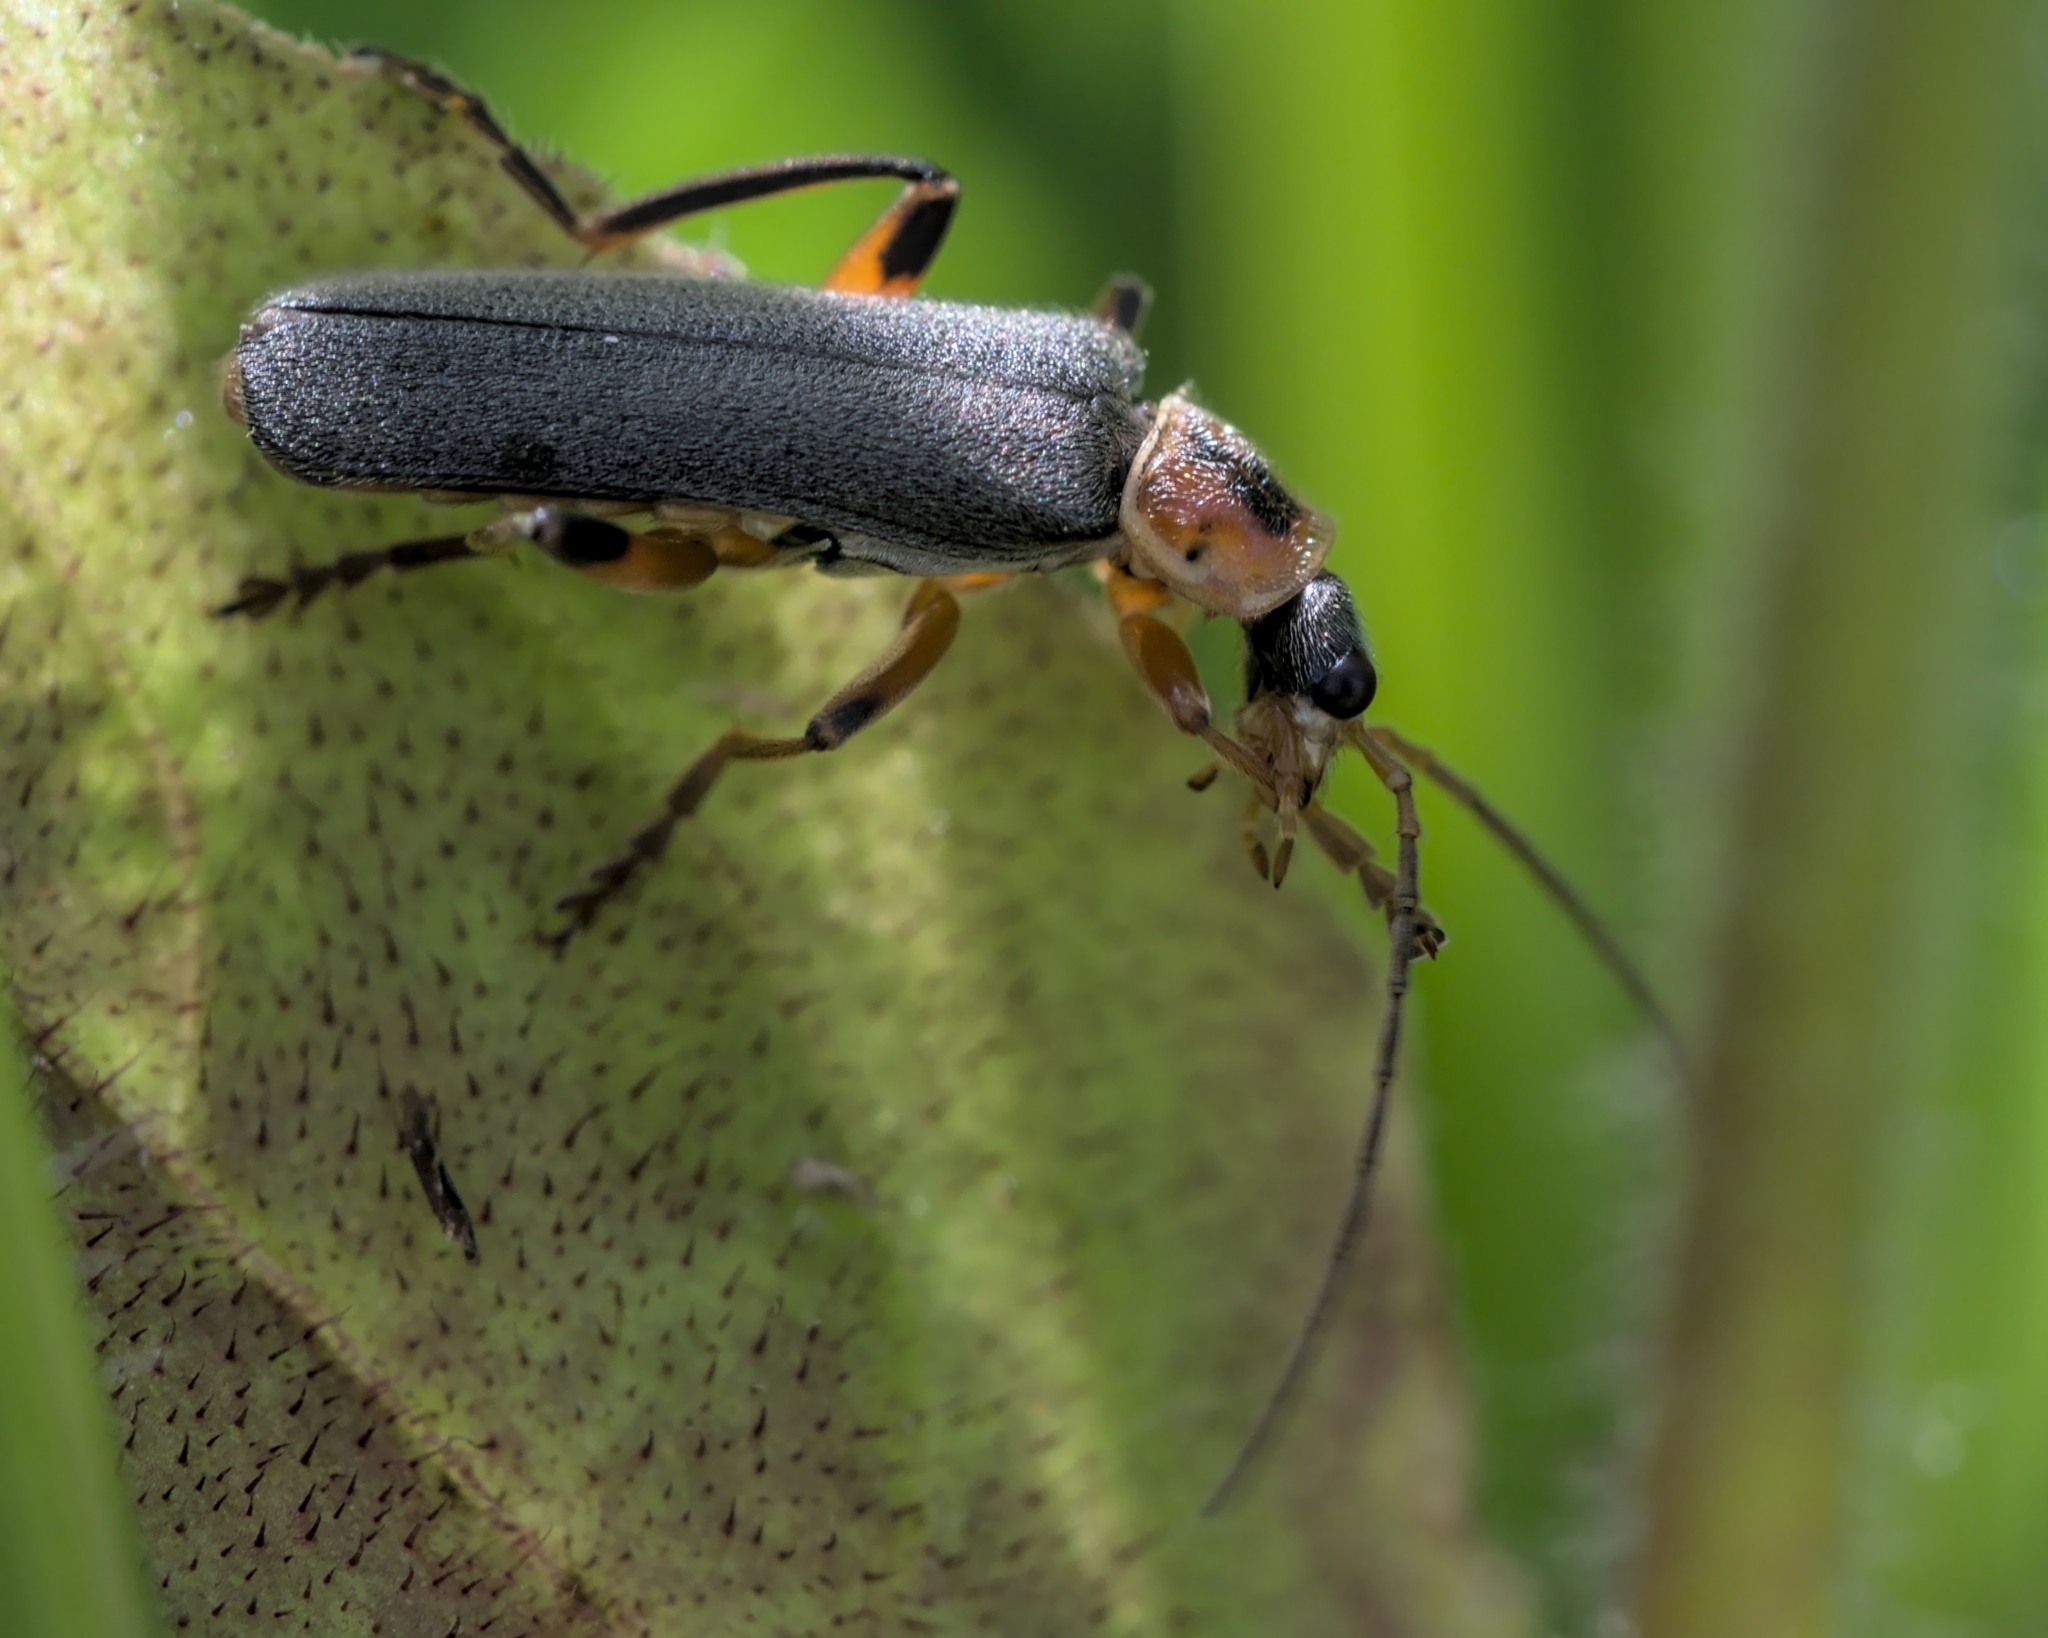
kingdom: Animalia
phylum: Arthropoda
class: Insecta
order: Coleoptera
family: Cantharidae
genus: Cantharis
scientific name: Cantharis nigricans
